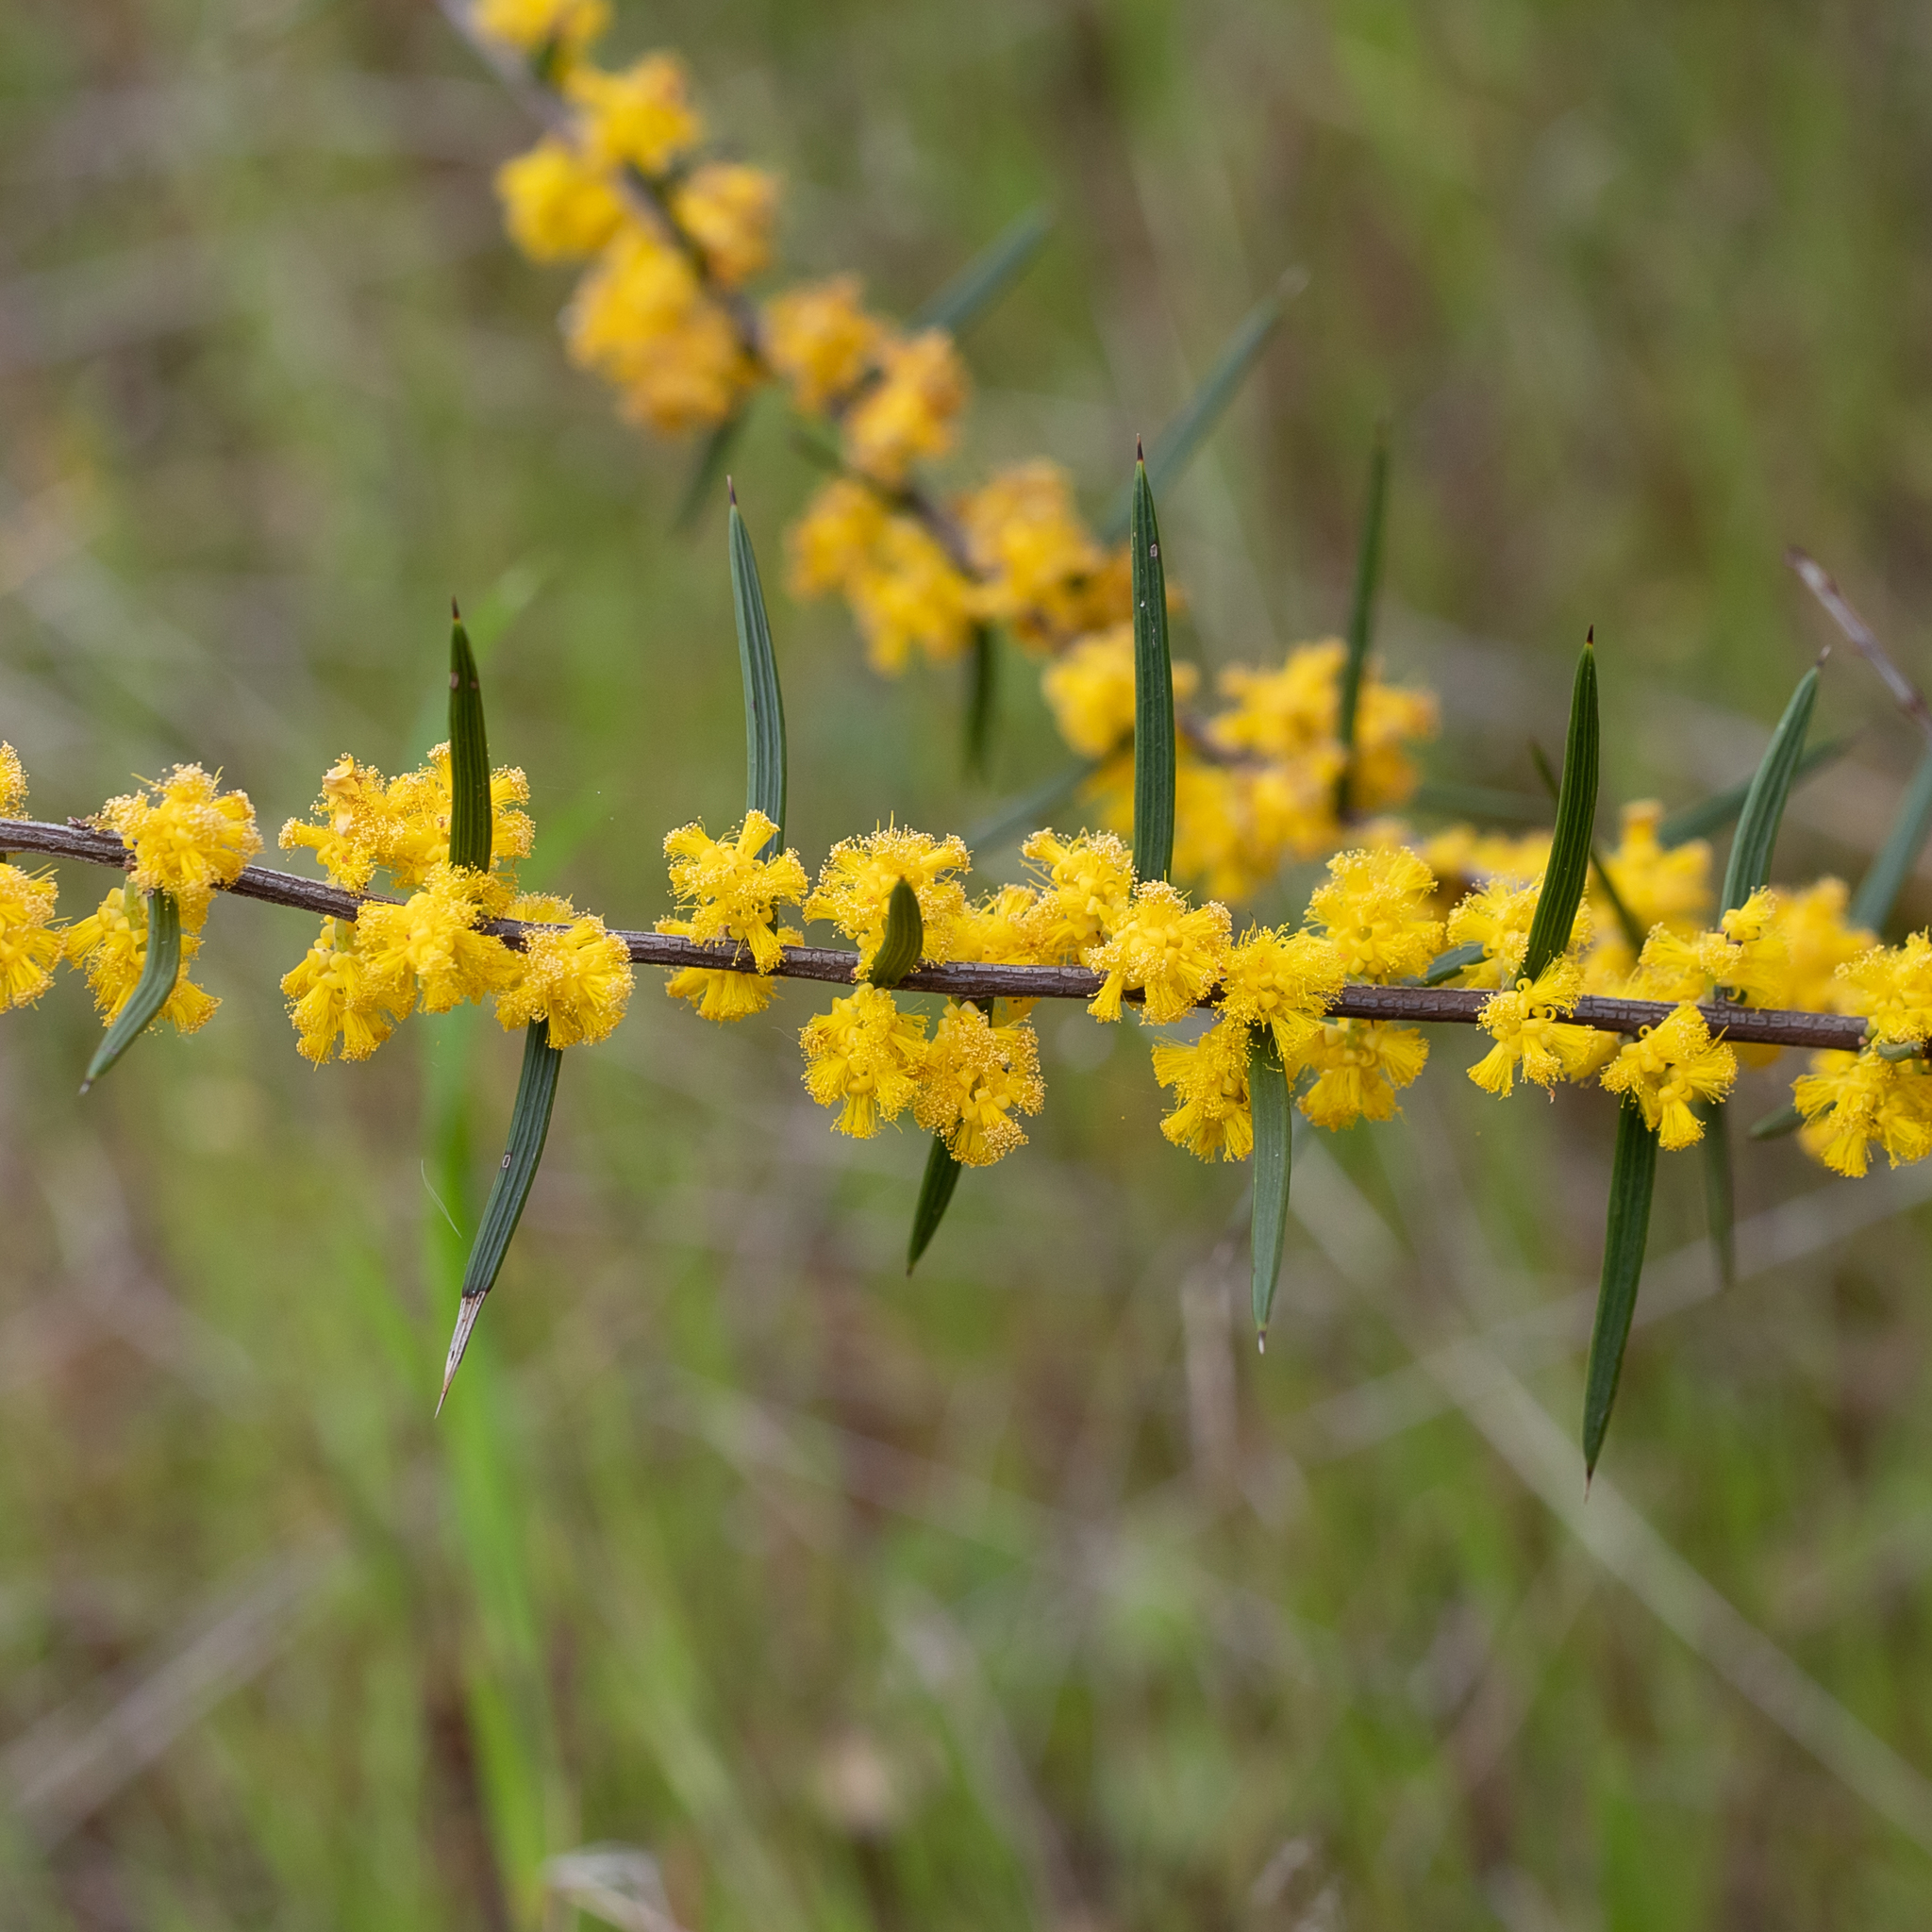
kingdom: Plantae
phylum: Tracheophyta
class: Magnoliopsida
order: Fabales
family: Fabaceae
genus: Acacia
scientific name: Acacia rhigiophylla
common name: Dagger-leaf wattle
